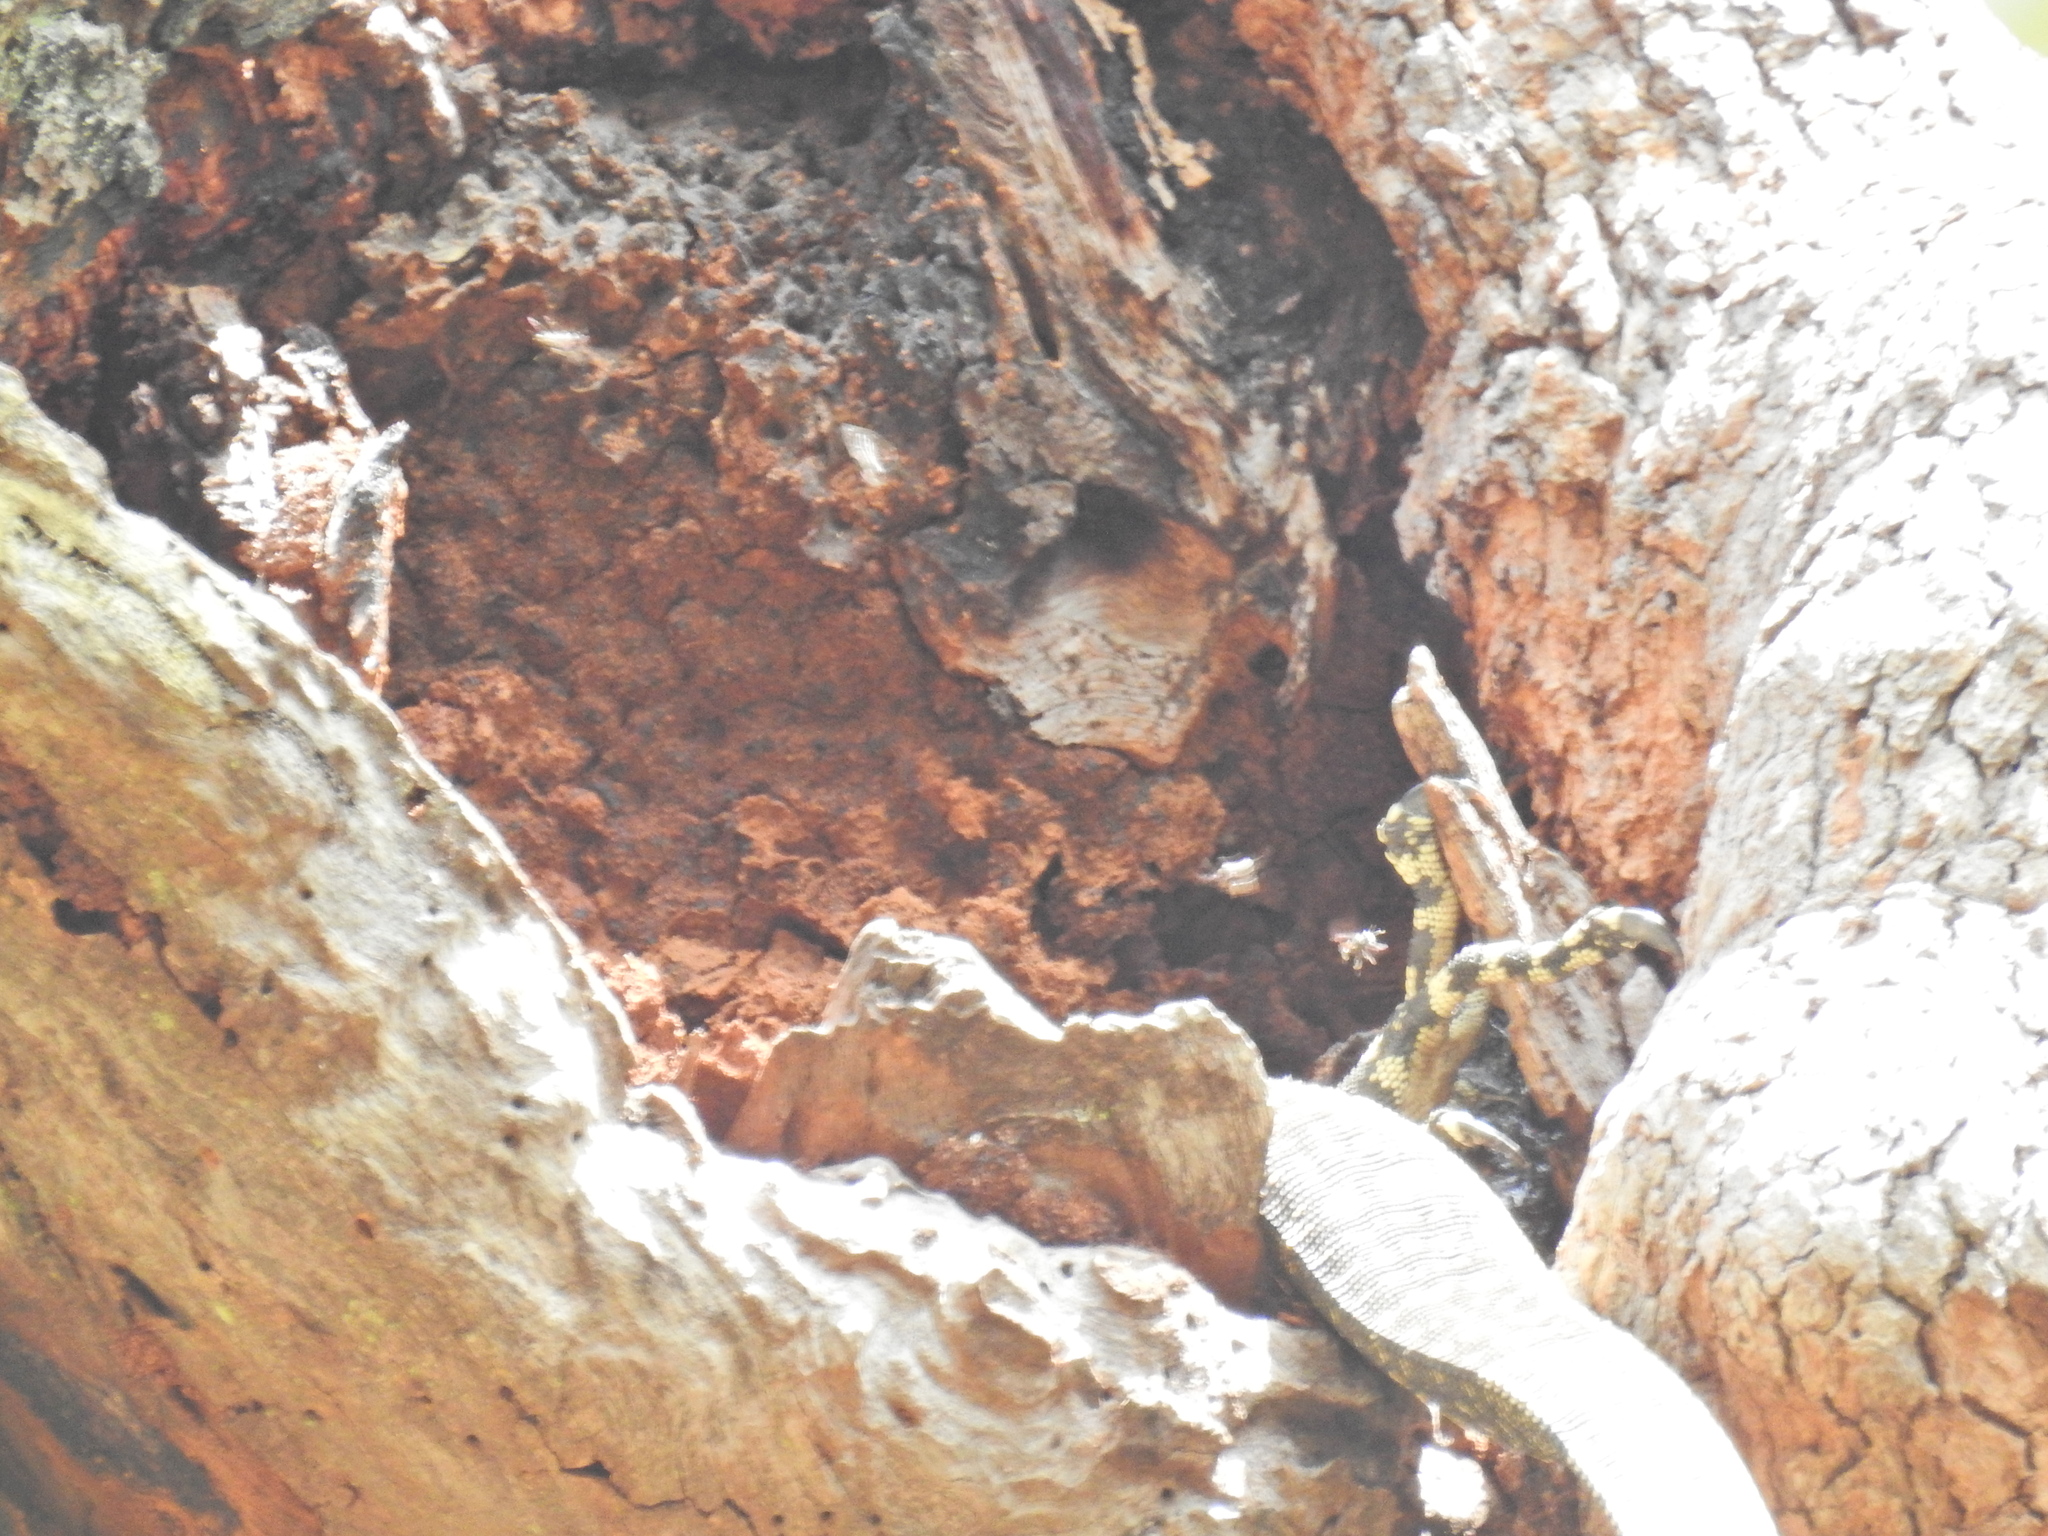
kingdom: Animalia
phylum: Chordata
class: Squamata
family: Varanidae
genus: Varanus
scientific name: Varanus varius
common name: Lace monitor
